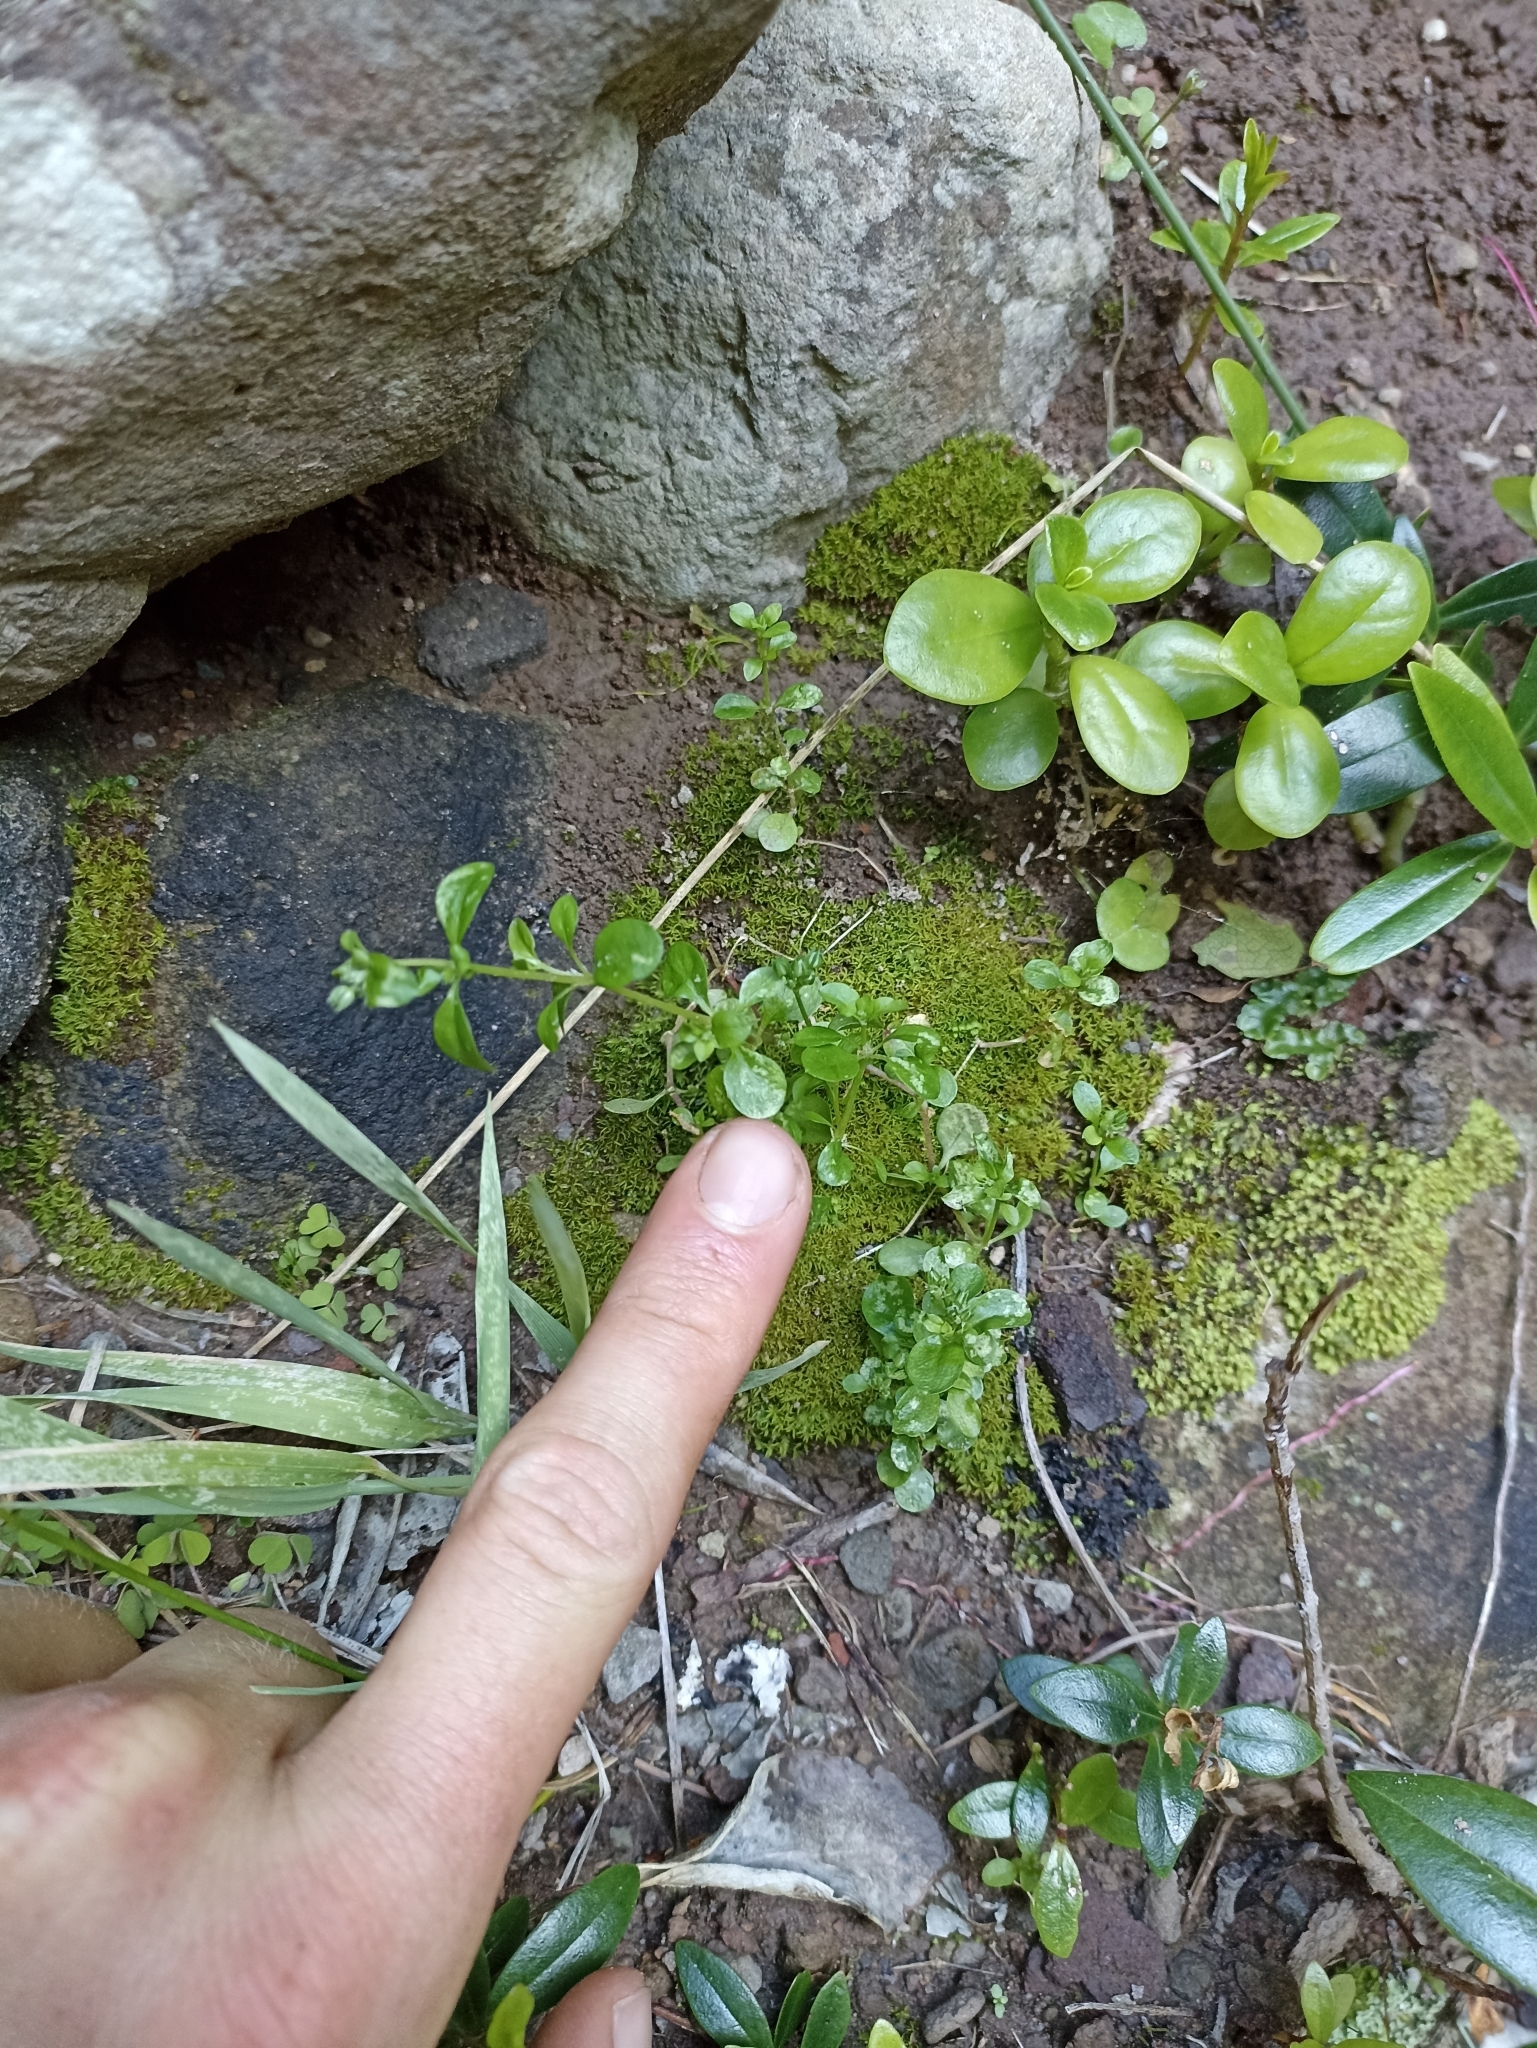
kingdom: Plantae
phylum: Tracheophyta
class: Magnoliopsida
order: Caryophyllales
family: Caryophyllaceae
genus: Polycarpon
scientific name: Polycarpon tetraphyllum
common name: Four-leaved all-seed
